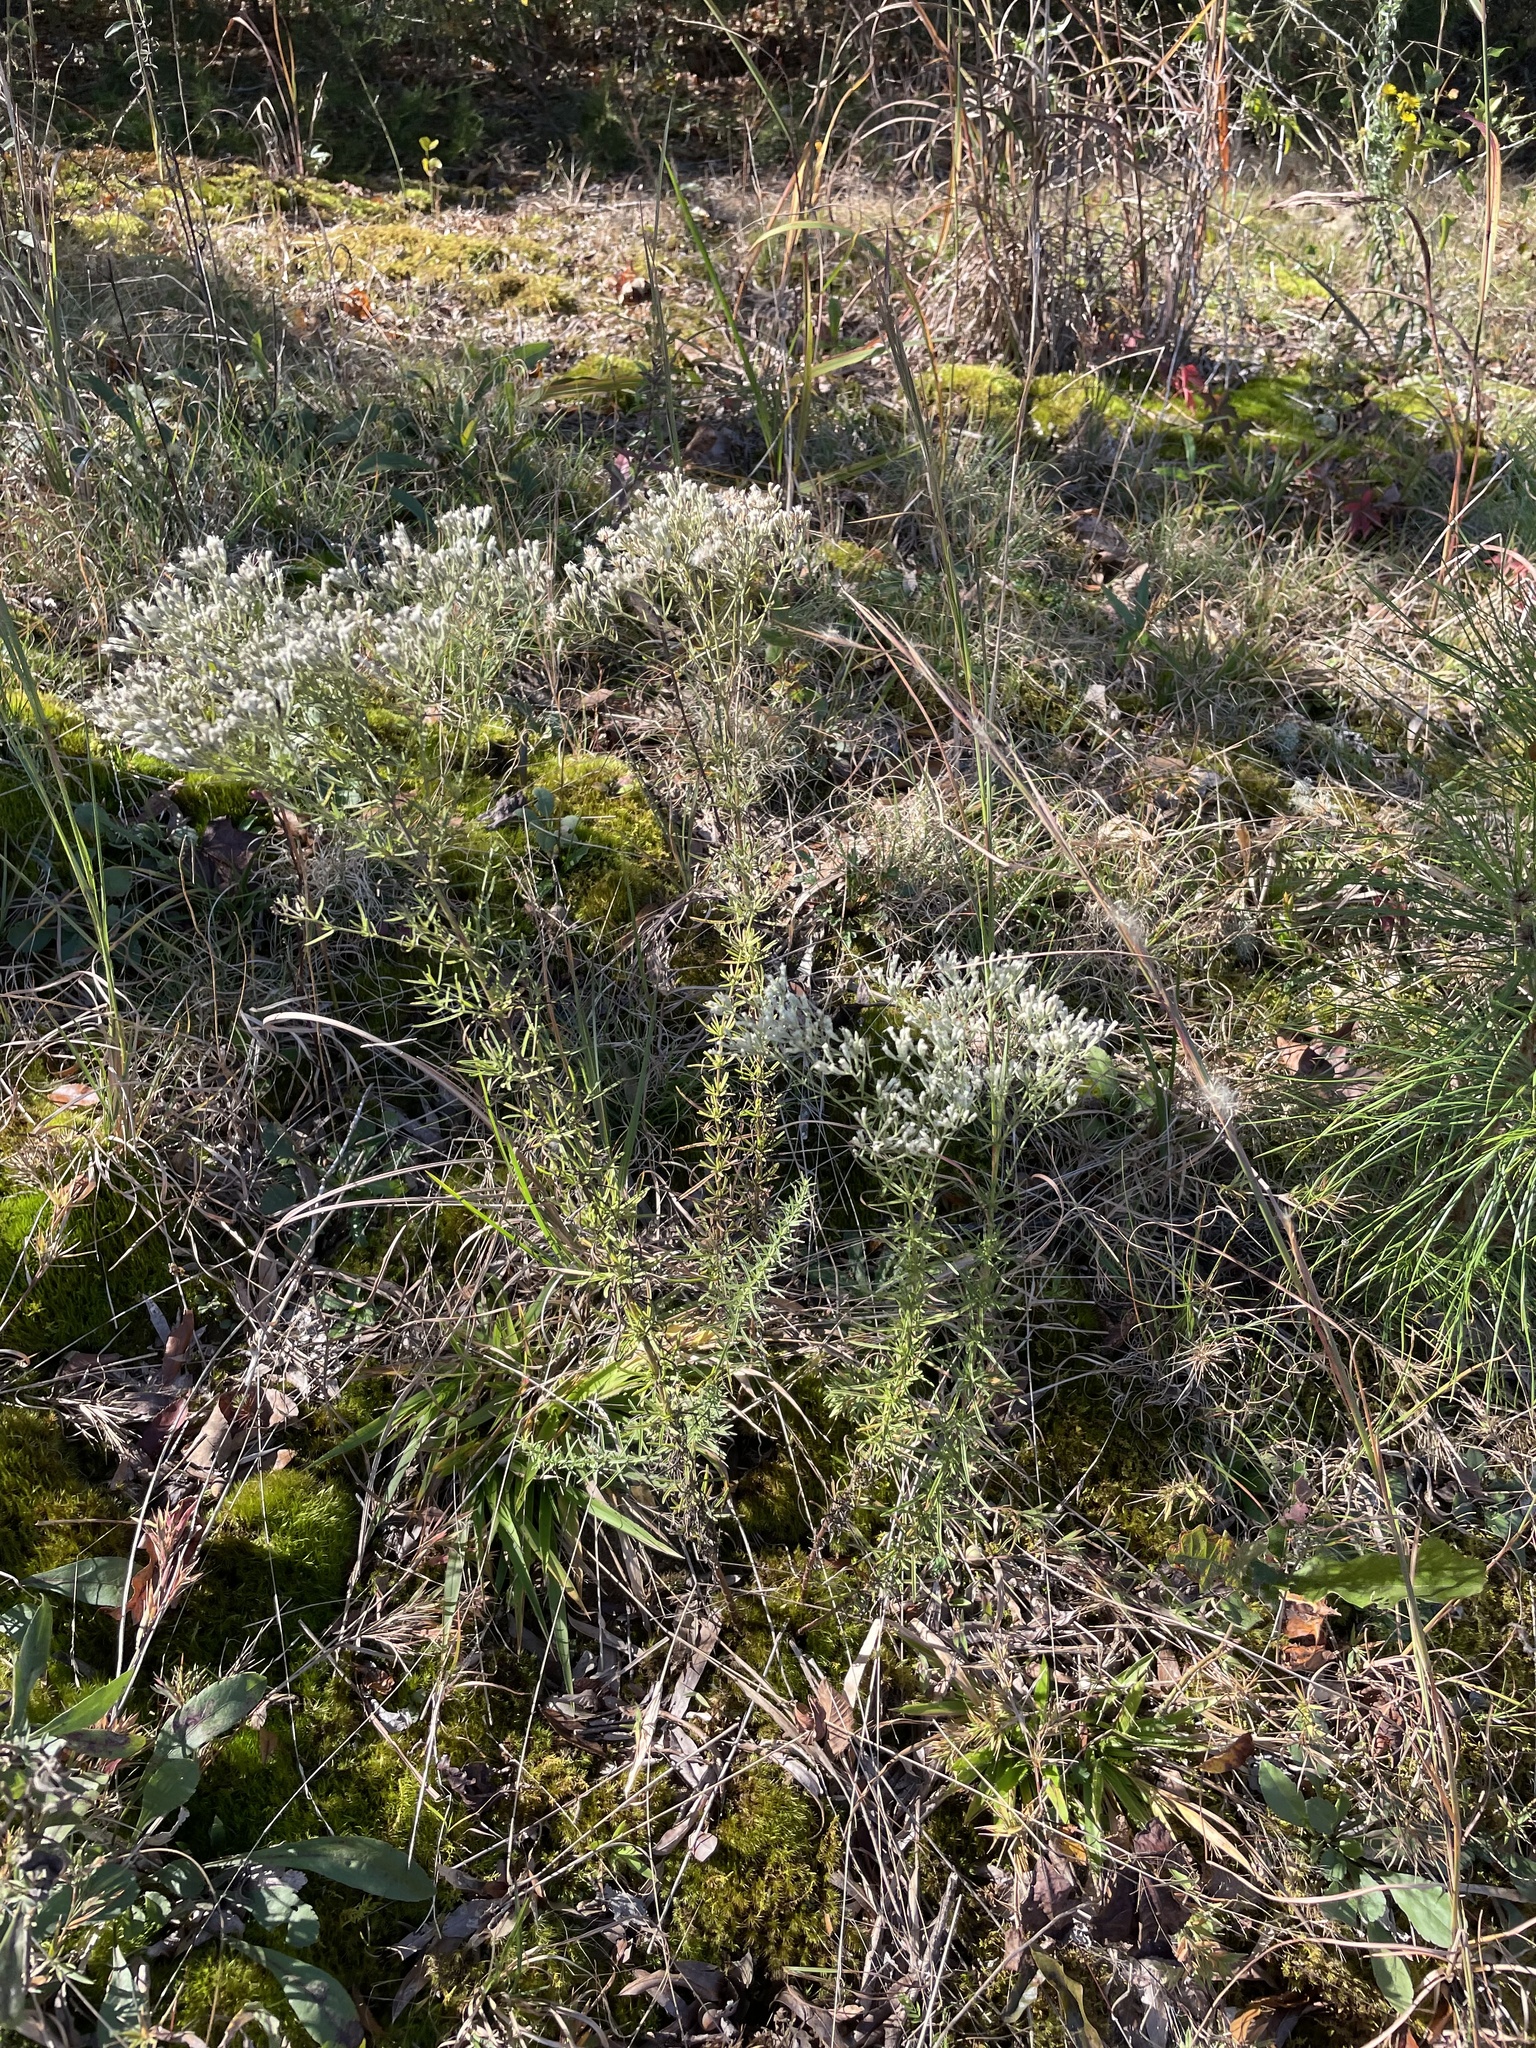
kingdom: Plantae
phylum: Tracheophyta
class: Magnoliopsida
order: Asterales
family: Asteraceae
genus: Eupatorium
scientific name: Eupatorium hyssopifolium
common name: Hyssop-leaf thoroughwort
